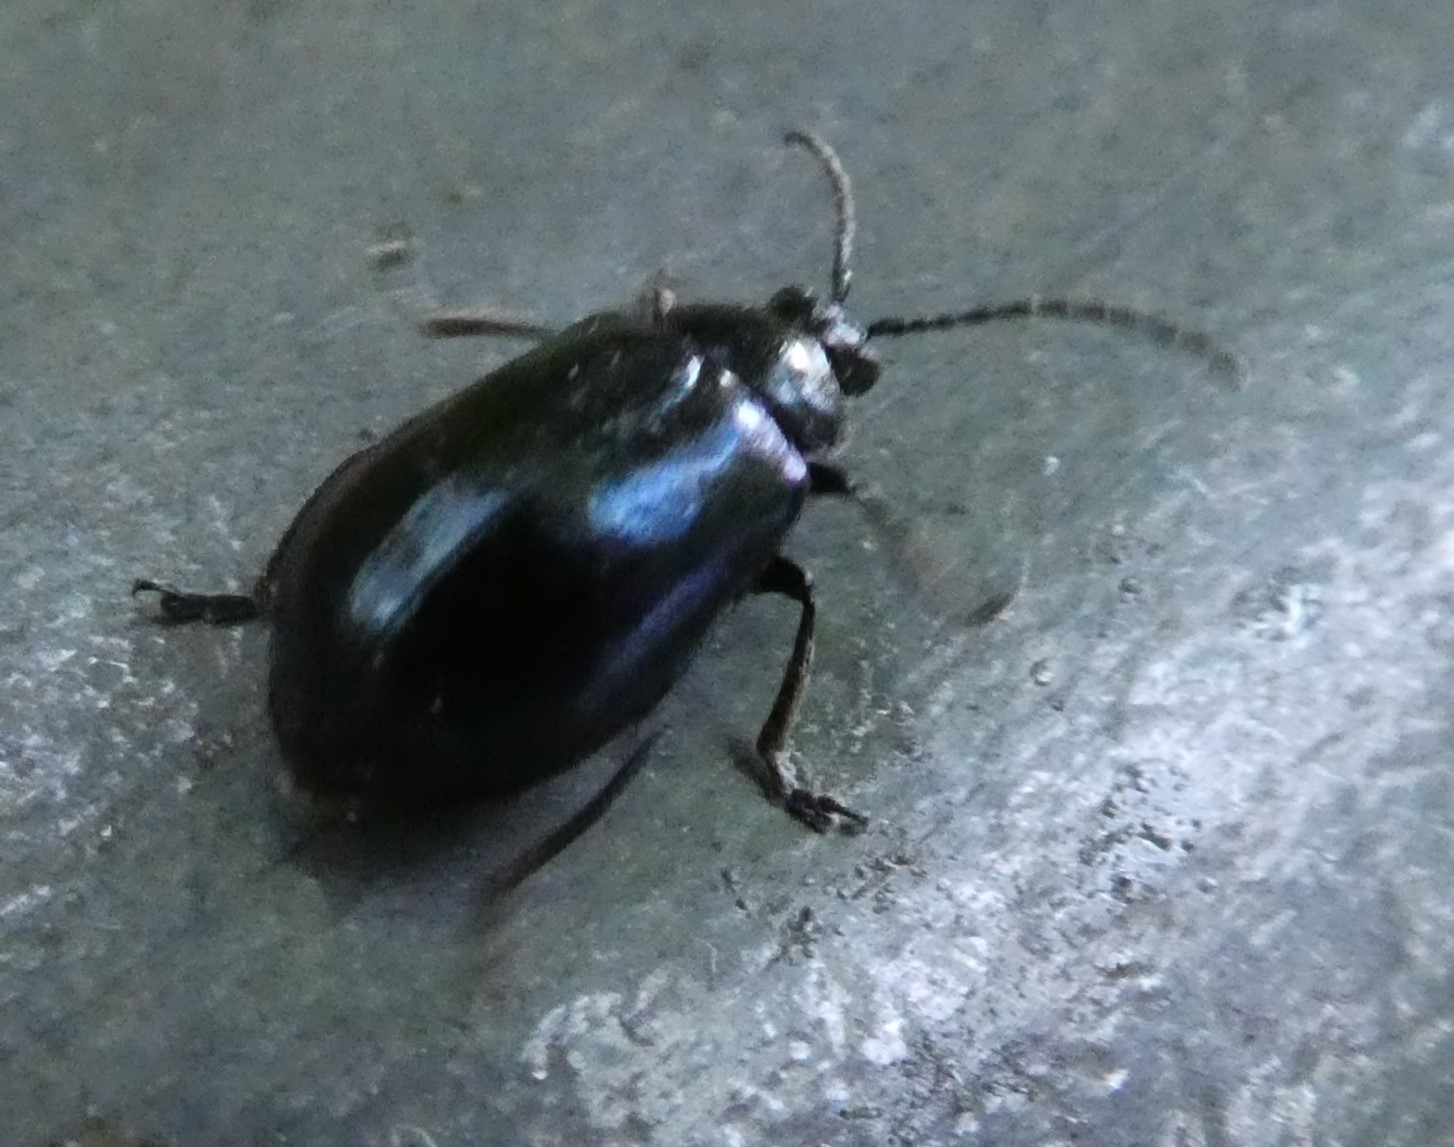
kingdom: Animalia
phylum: Arthropoda
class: Insecta
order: Coleoptera
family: Chrysomelidae
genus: Agelastica
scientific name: Agelastica alni
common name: Alder leaf beetle
